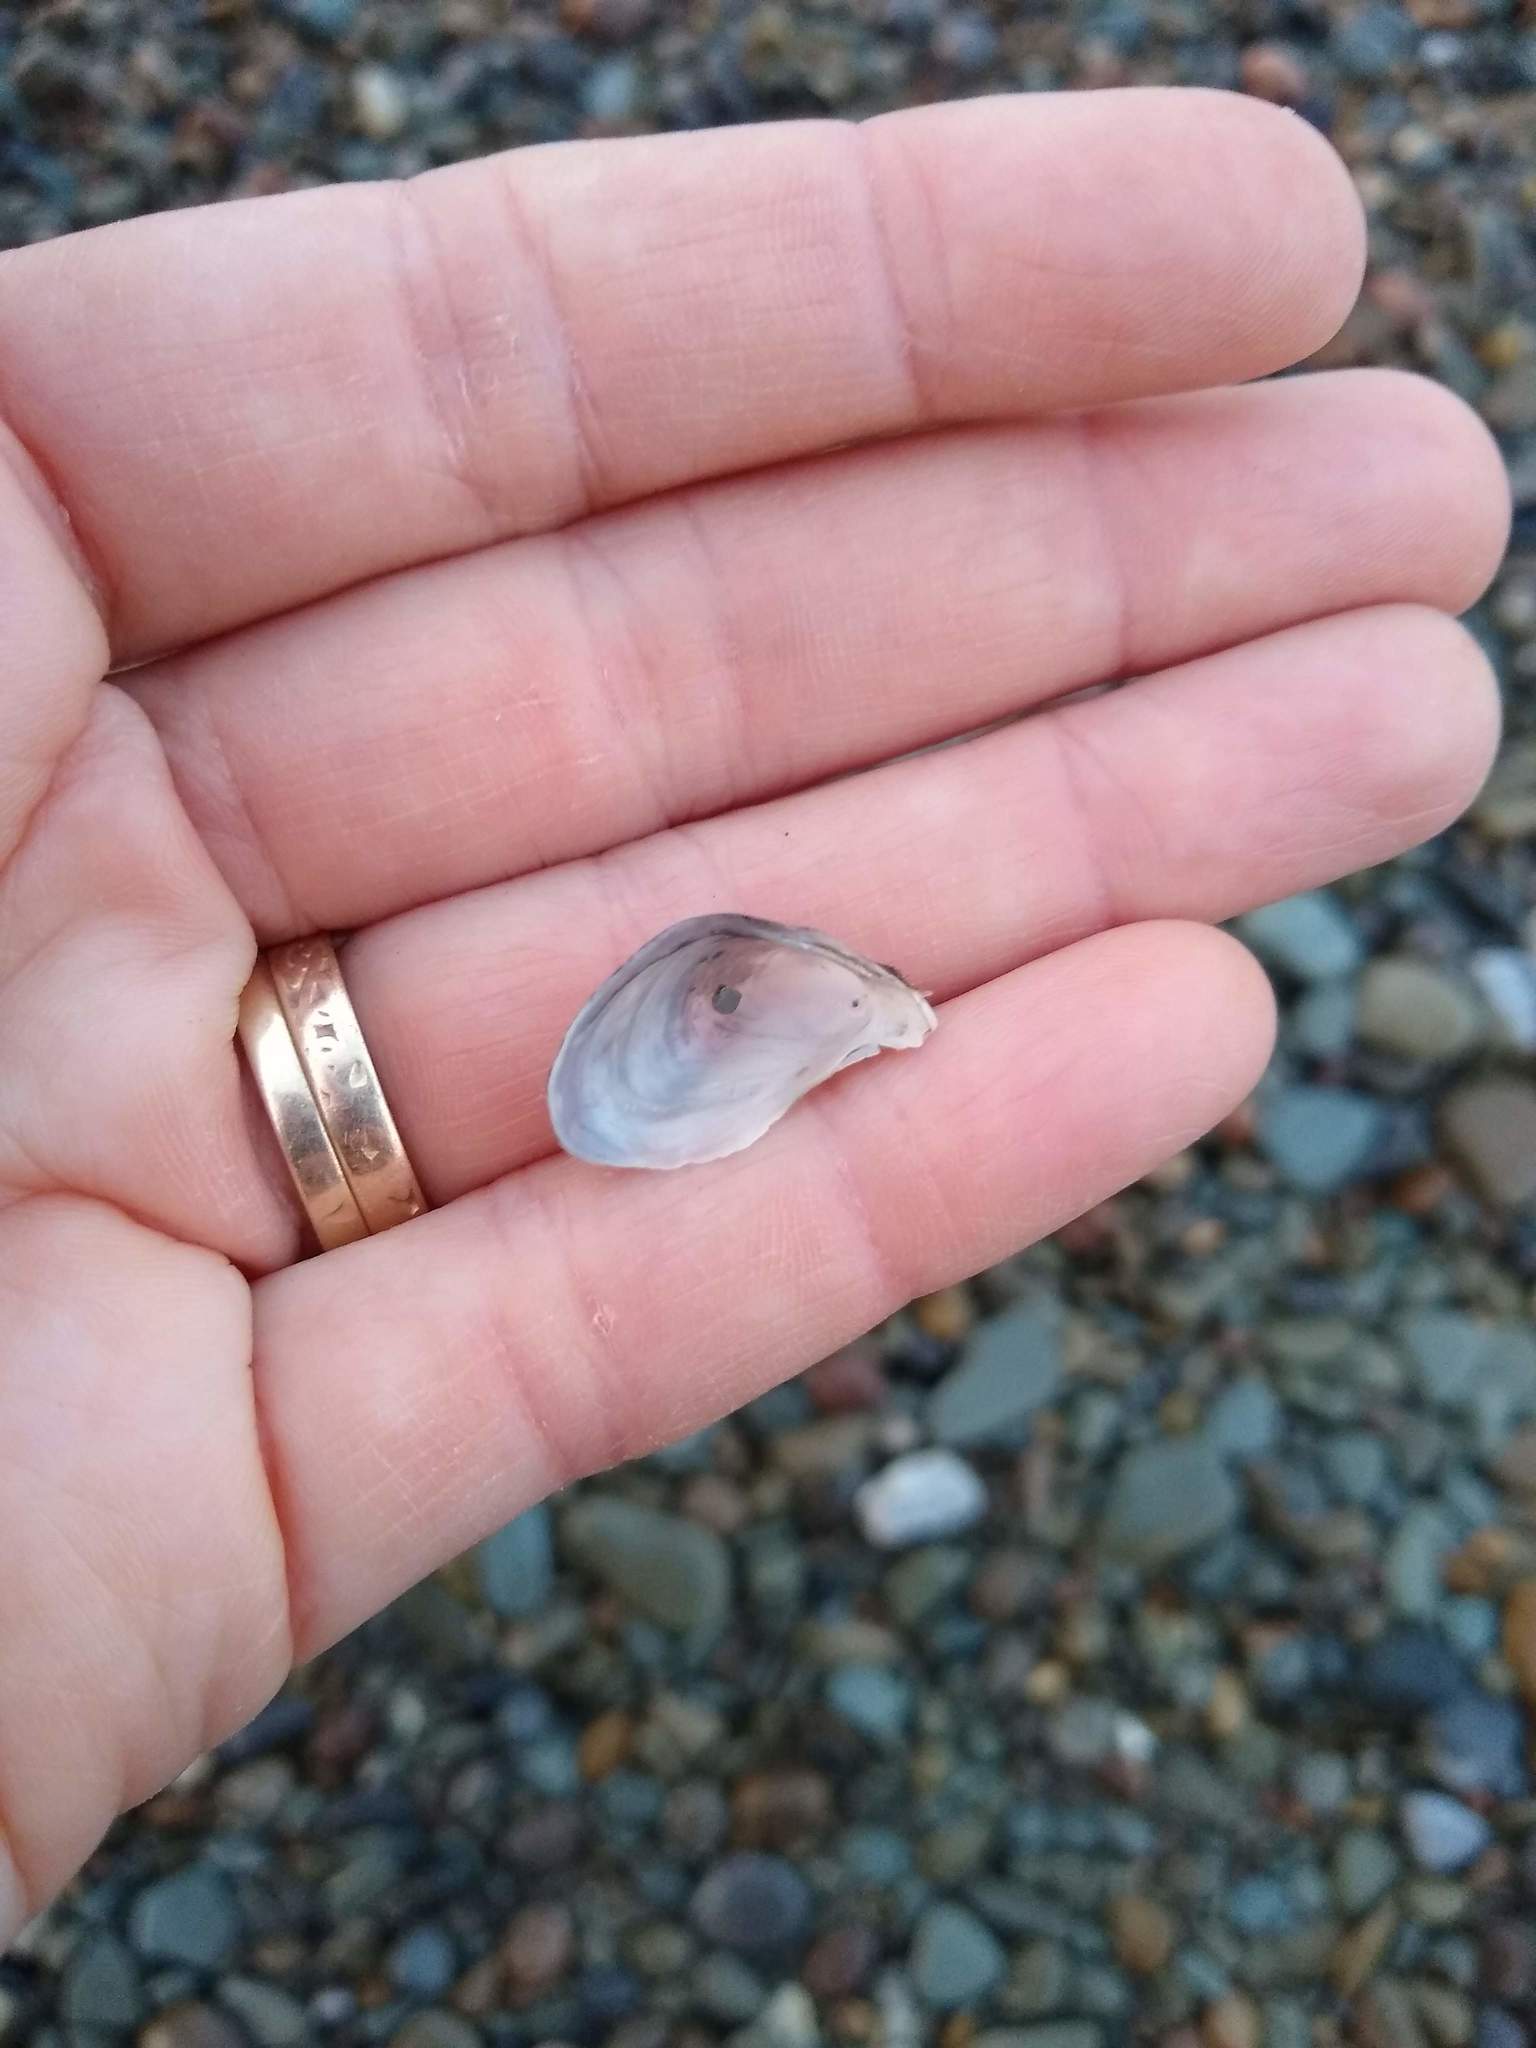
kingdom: Animalia
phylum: Mollusca
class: Bivalvia
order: Myida
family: Dreissenidae
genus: Dreissena
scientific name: Dreissena bugensis
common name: Quagga mussel
